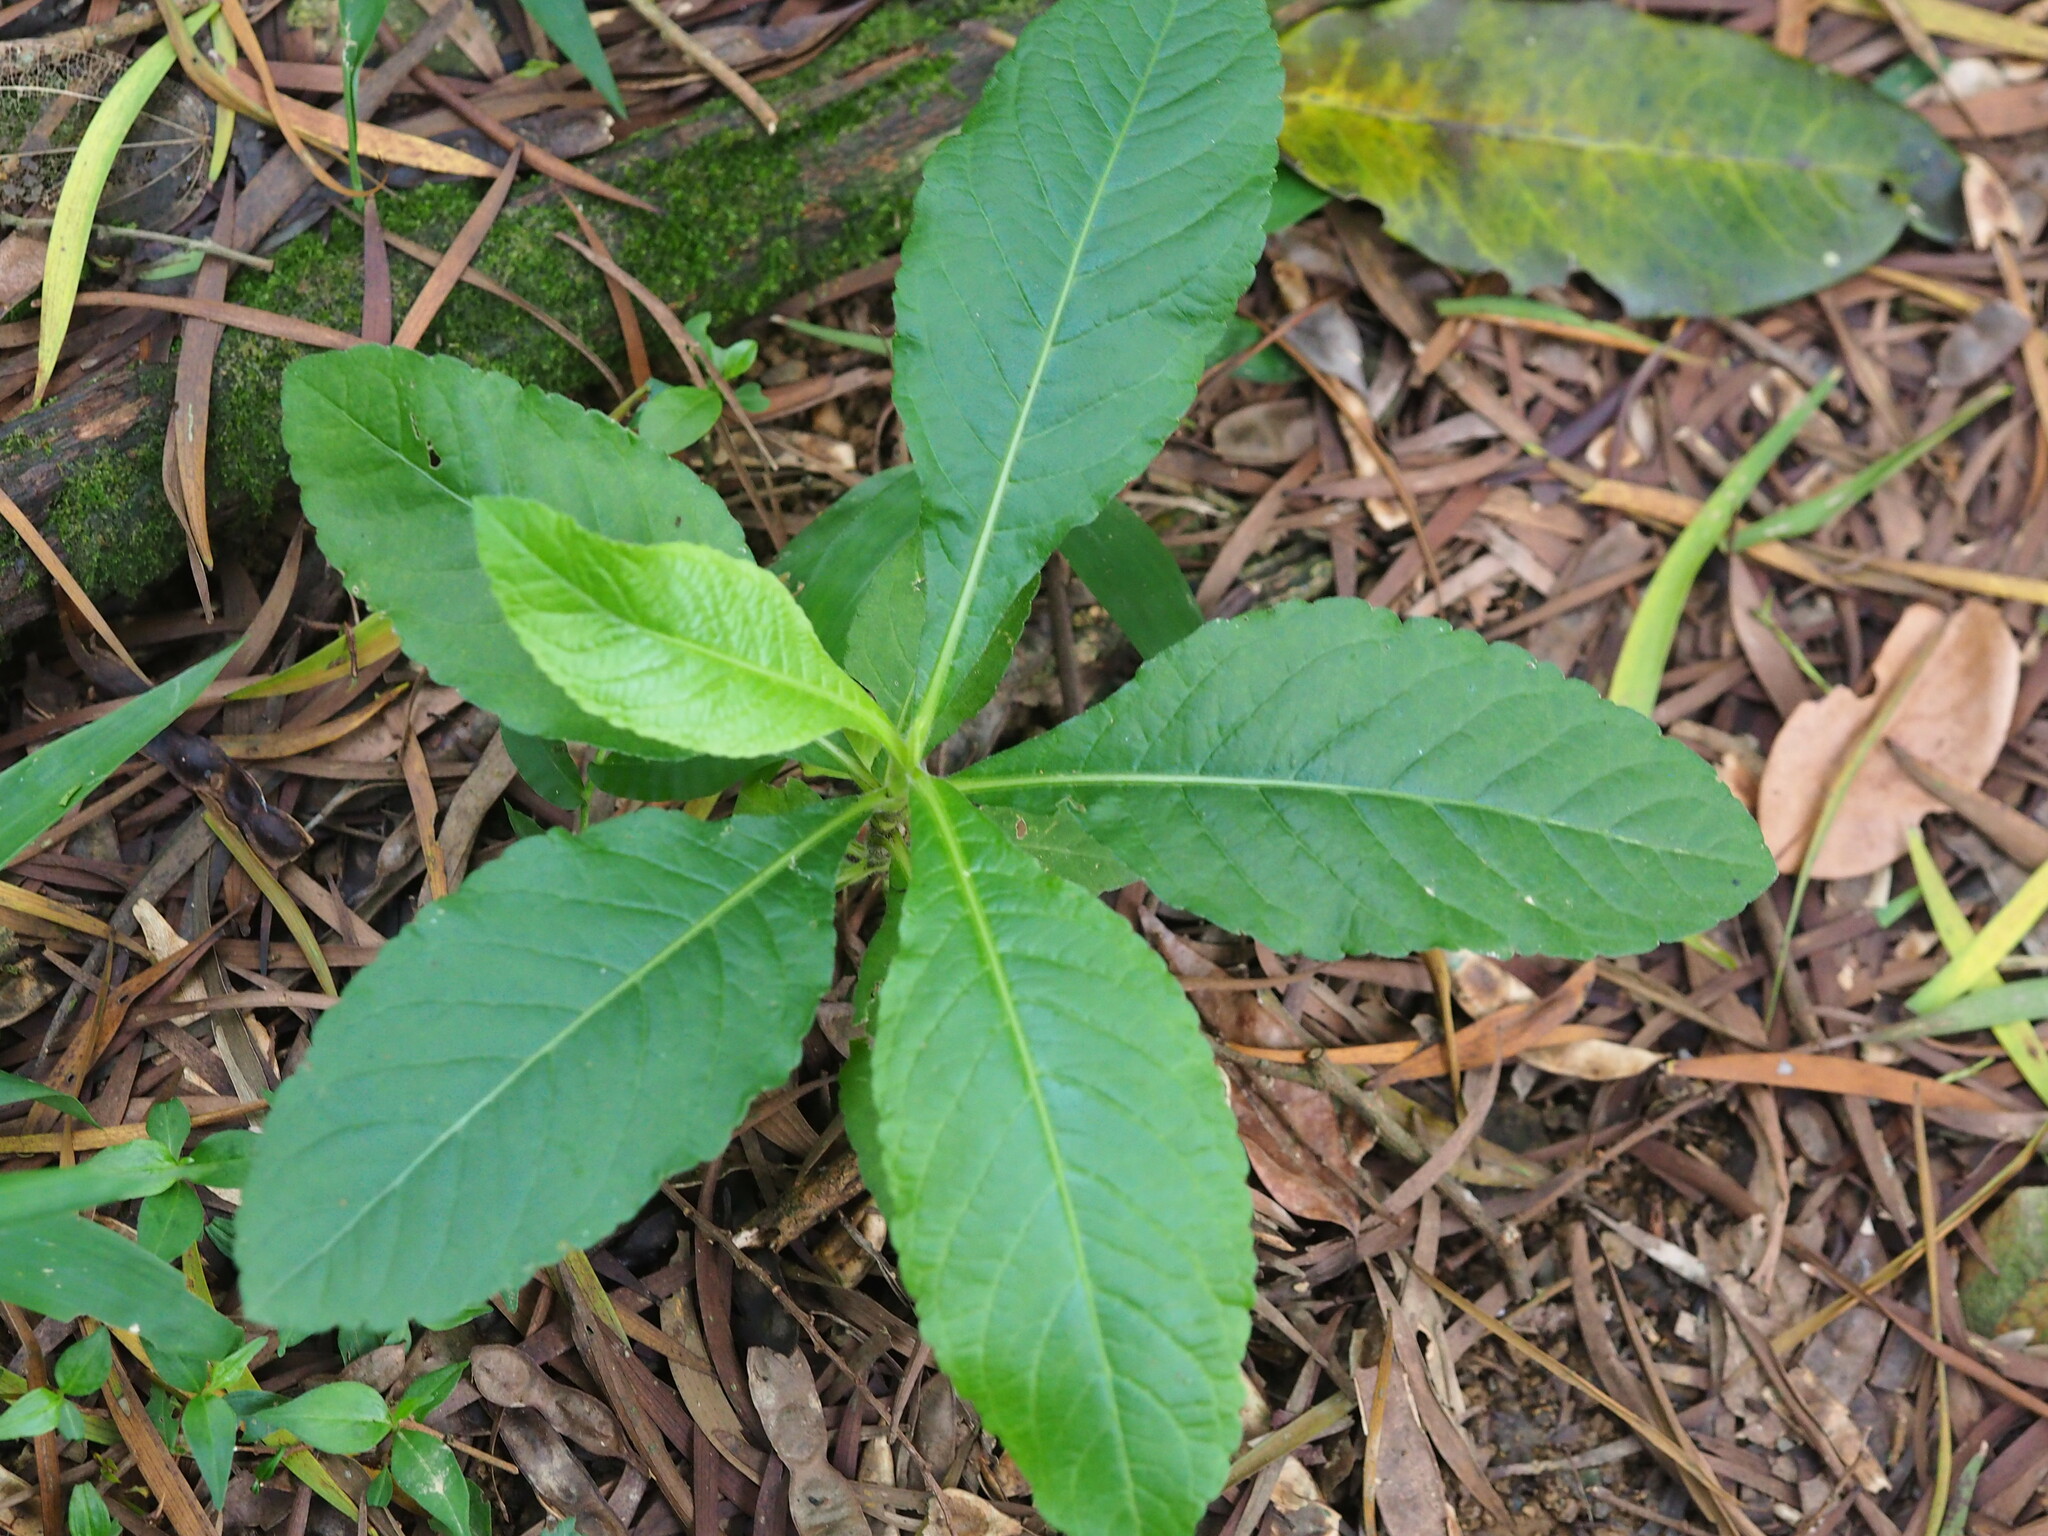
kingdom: Plantae
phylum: Tracheophyta
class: Magnoliopsida
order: Asterales
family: Asteraceae
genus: Elephantopus
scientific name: Elephantopus mollis
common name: Soft elephantsfoot
